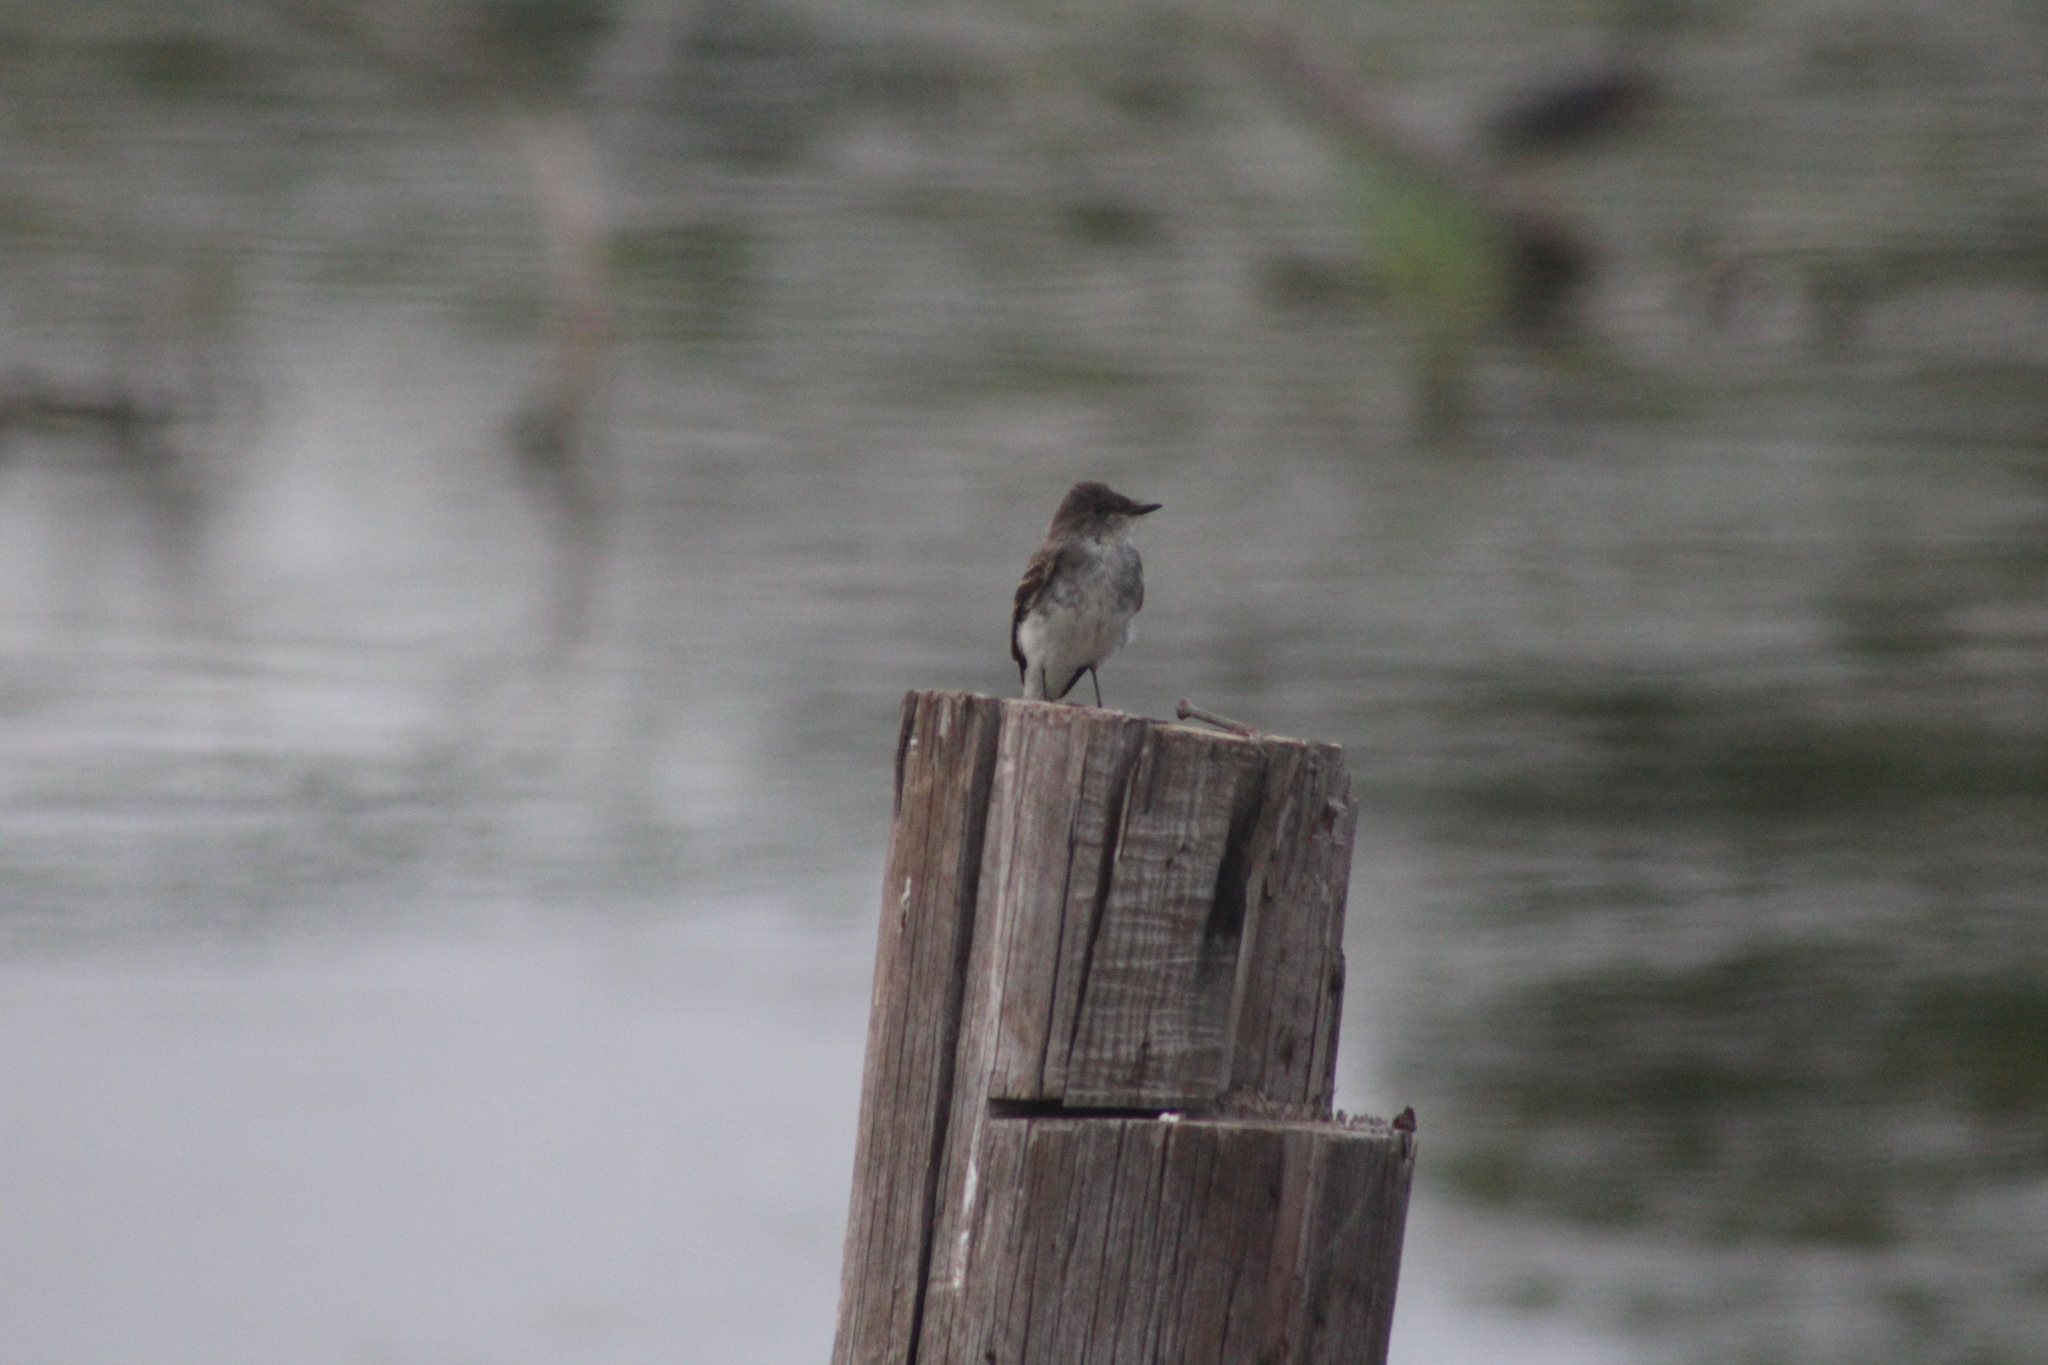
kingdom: Animalia
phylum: Chordata
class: Aves
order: Passeriformes
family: Tyrannidae
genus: Sayornis
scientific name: Sayornis phoebe
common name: Eastern phoebe
